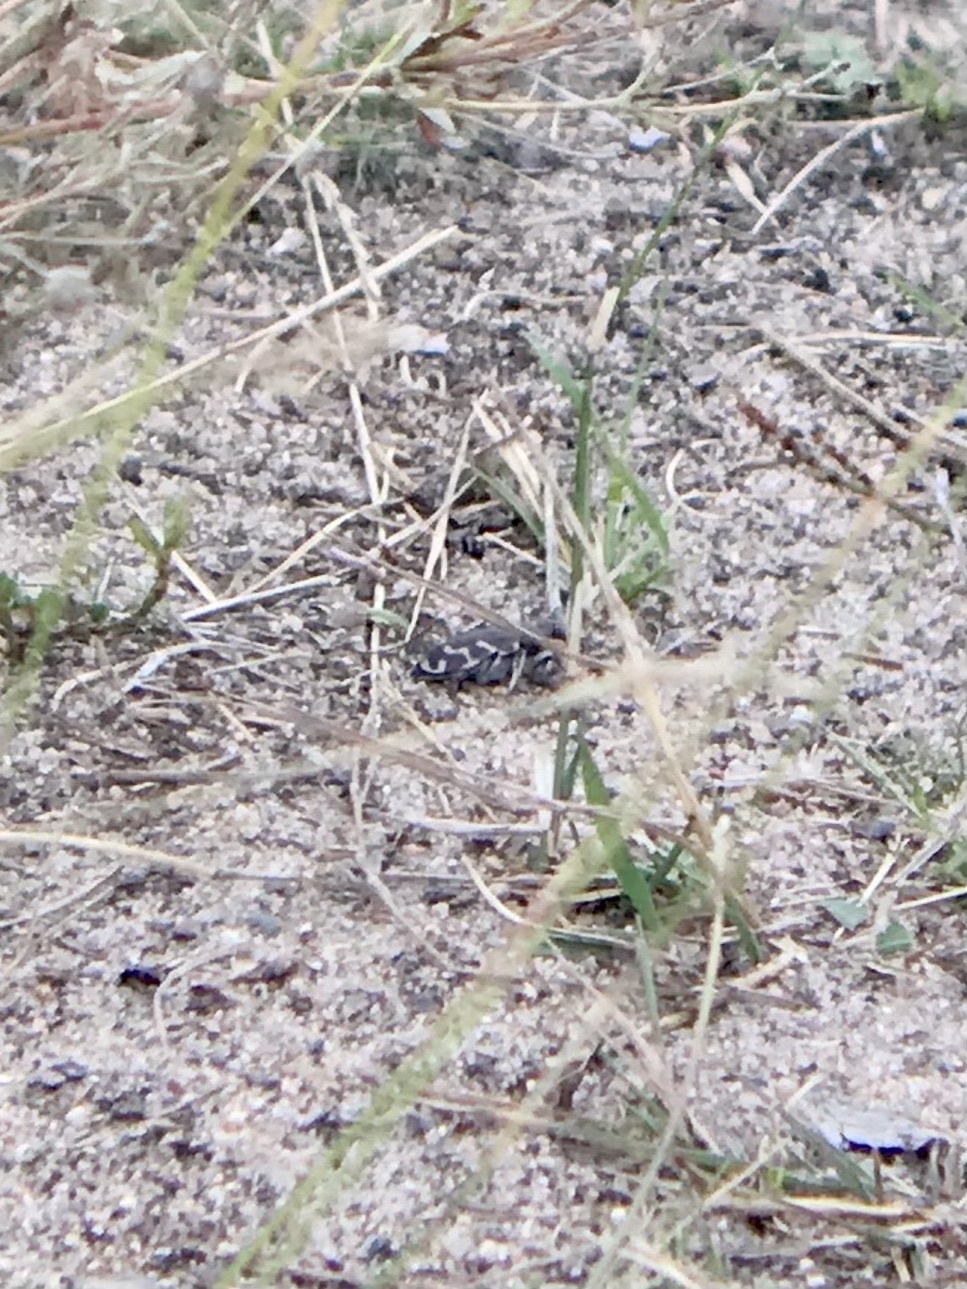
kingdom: Animalia
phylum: Arthropoda
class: Insecta
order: Coleoptera
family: Carabidae
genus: Cicindela
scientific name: Cicindela tranquebarica
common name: Oblique-lined tiger beetle
